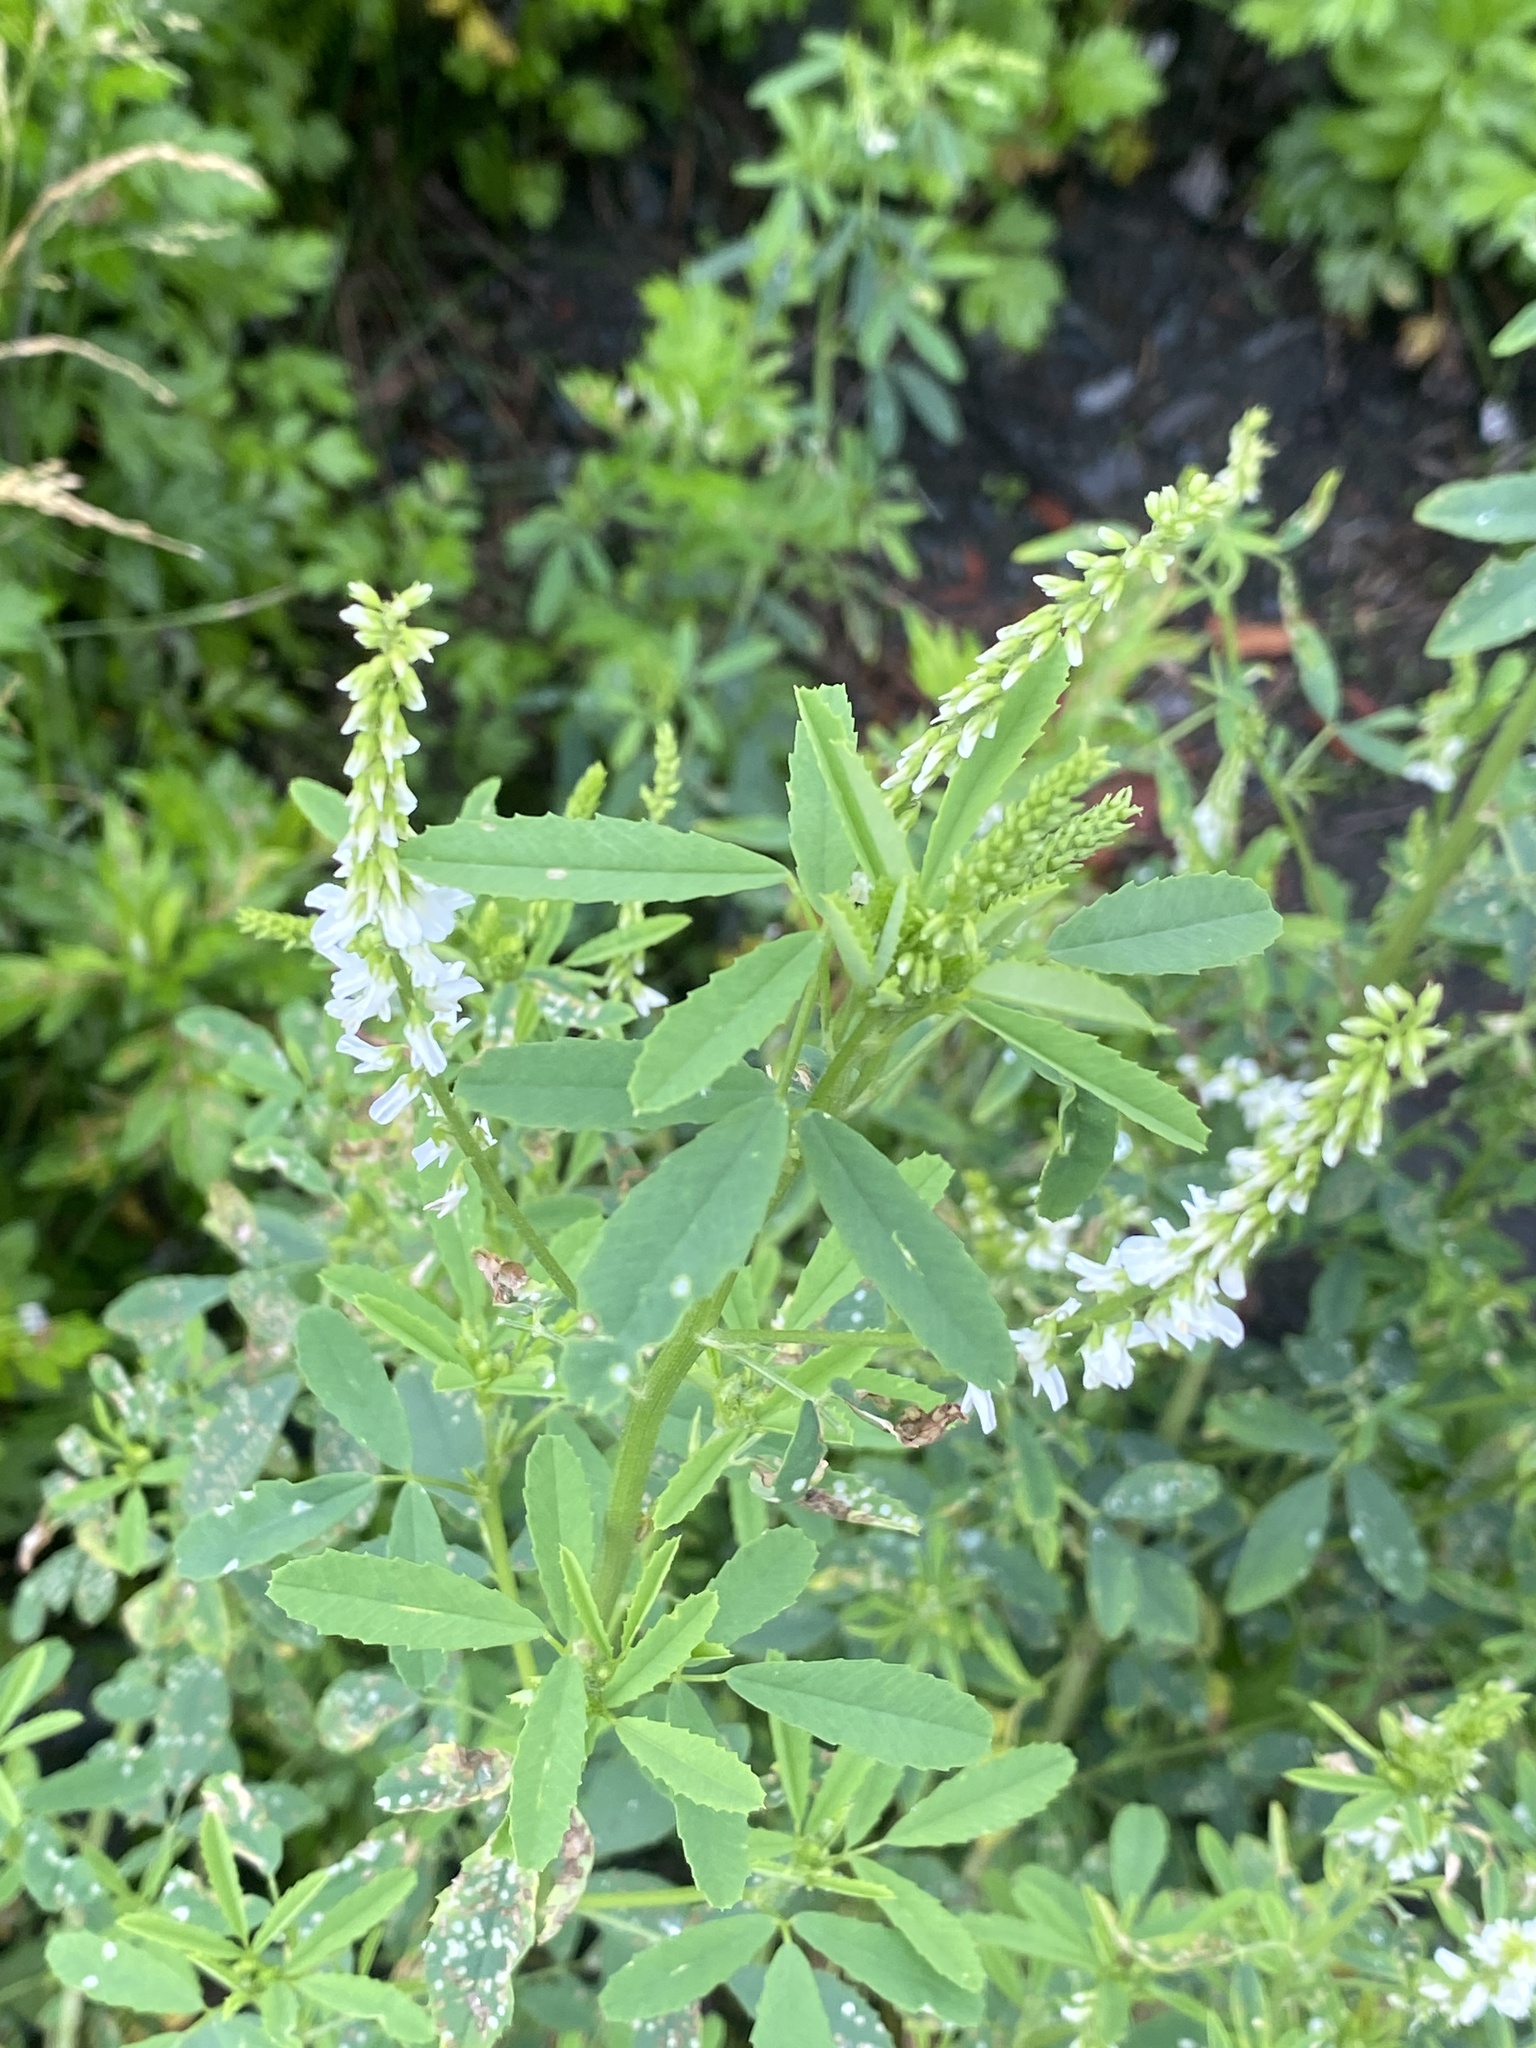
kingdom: Plantae
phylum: Tracheophyta
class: Magnoliopsida
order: Fabales
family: Fabaceae
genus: Melilotus
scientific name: Melilotus albus
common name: White melilot
